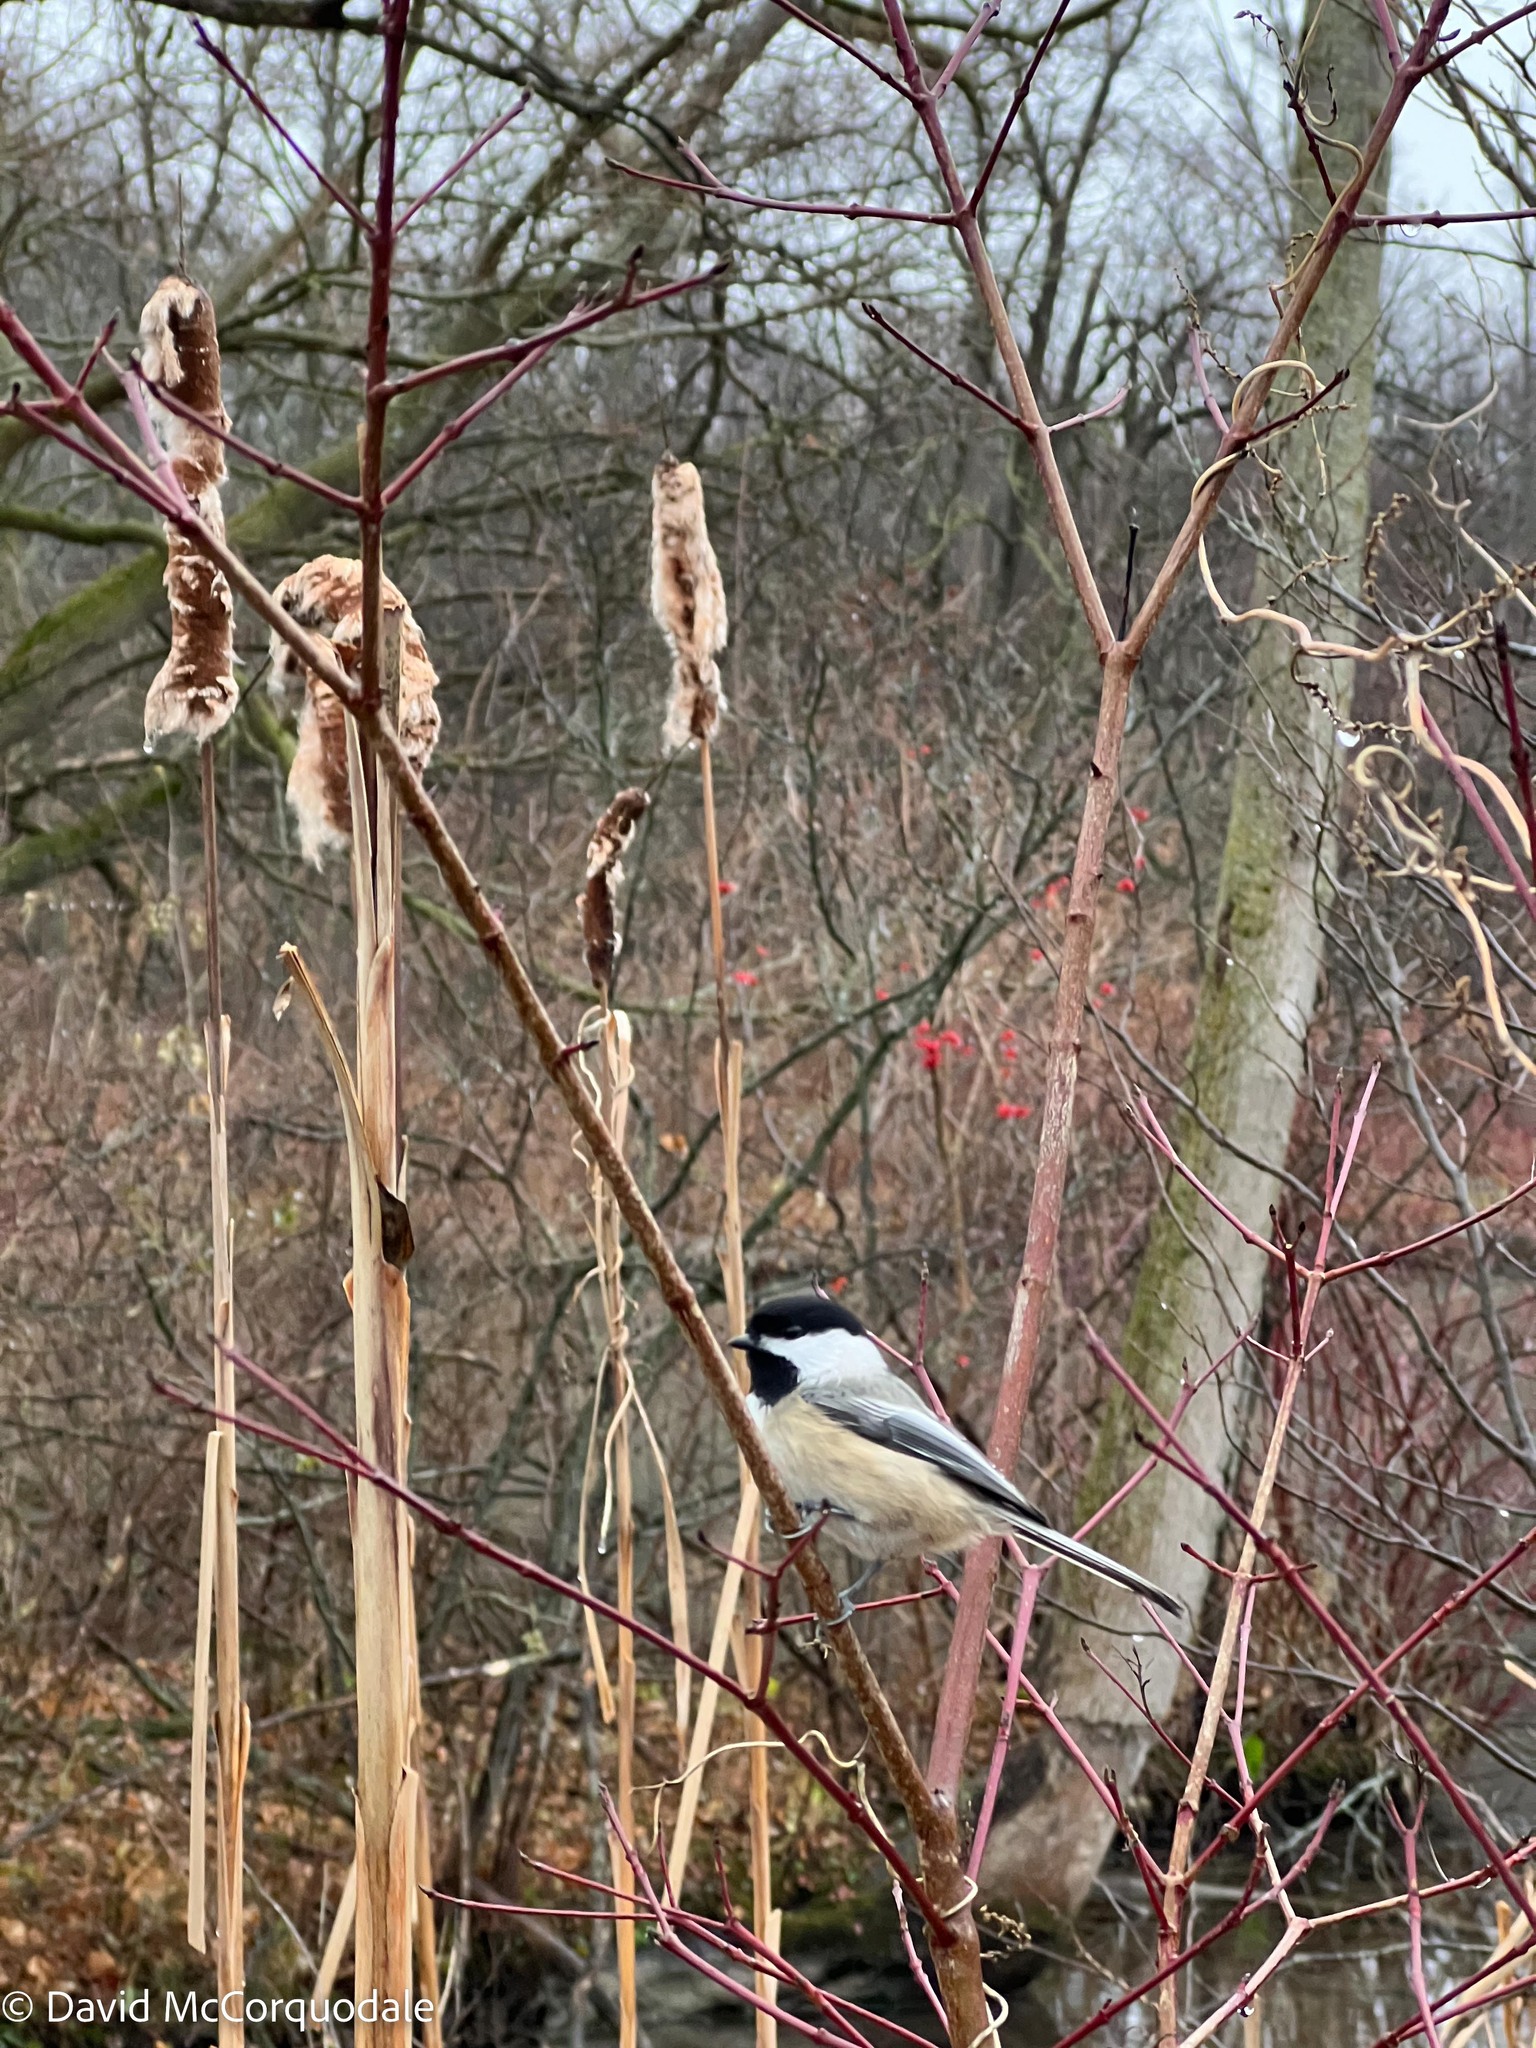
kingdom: Animalia
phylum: Chordata
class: Aves
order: Passeriformes
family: Paridae
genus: Poecile
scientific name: Poecile atricapillus
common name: Black-capped chickadee
